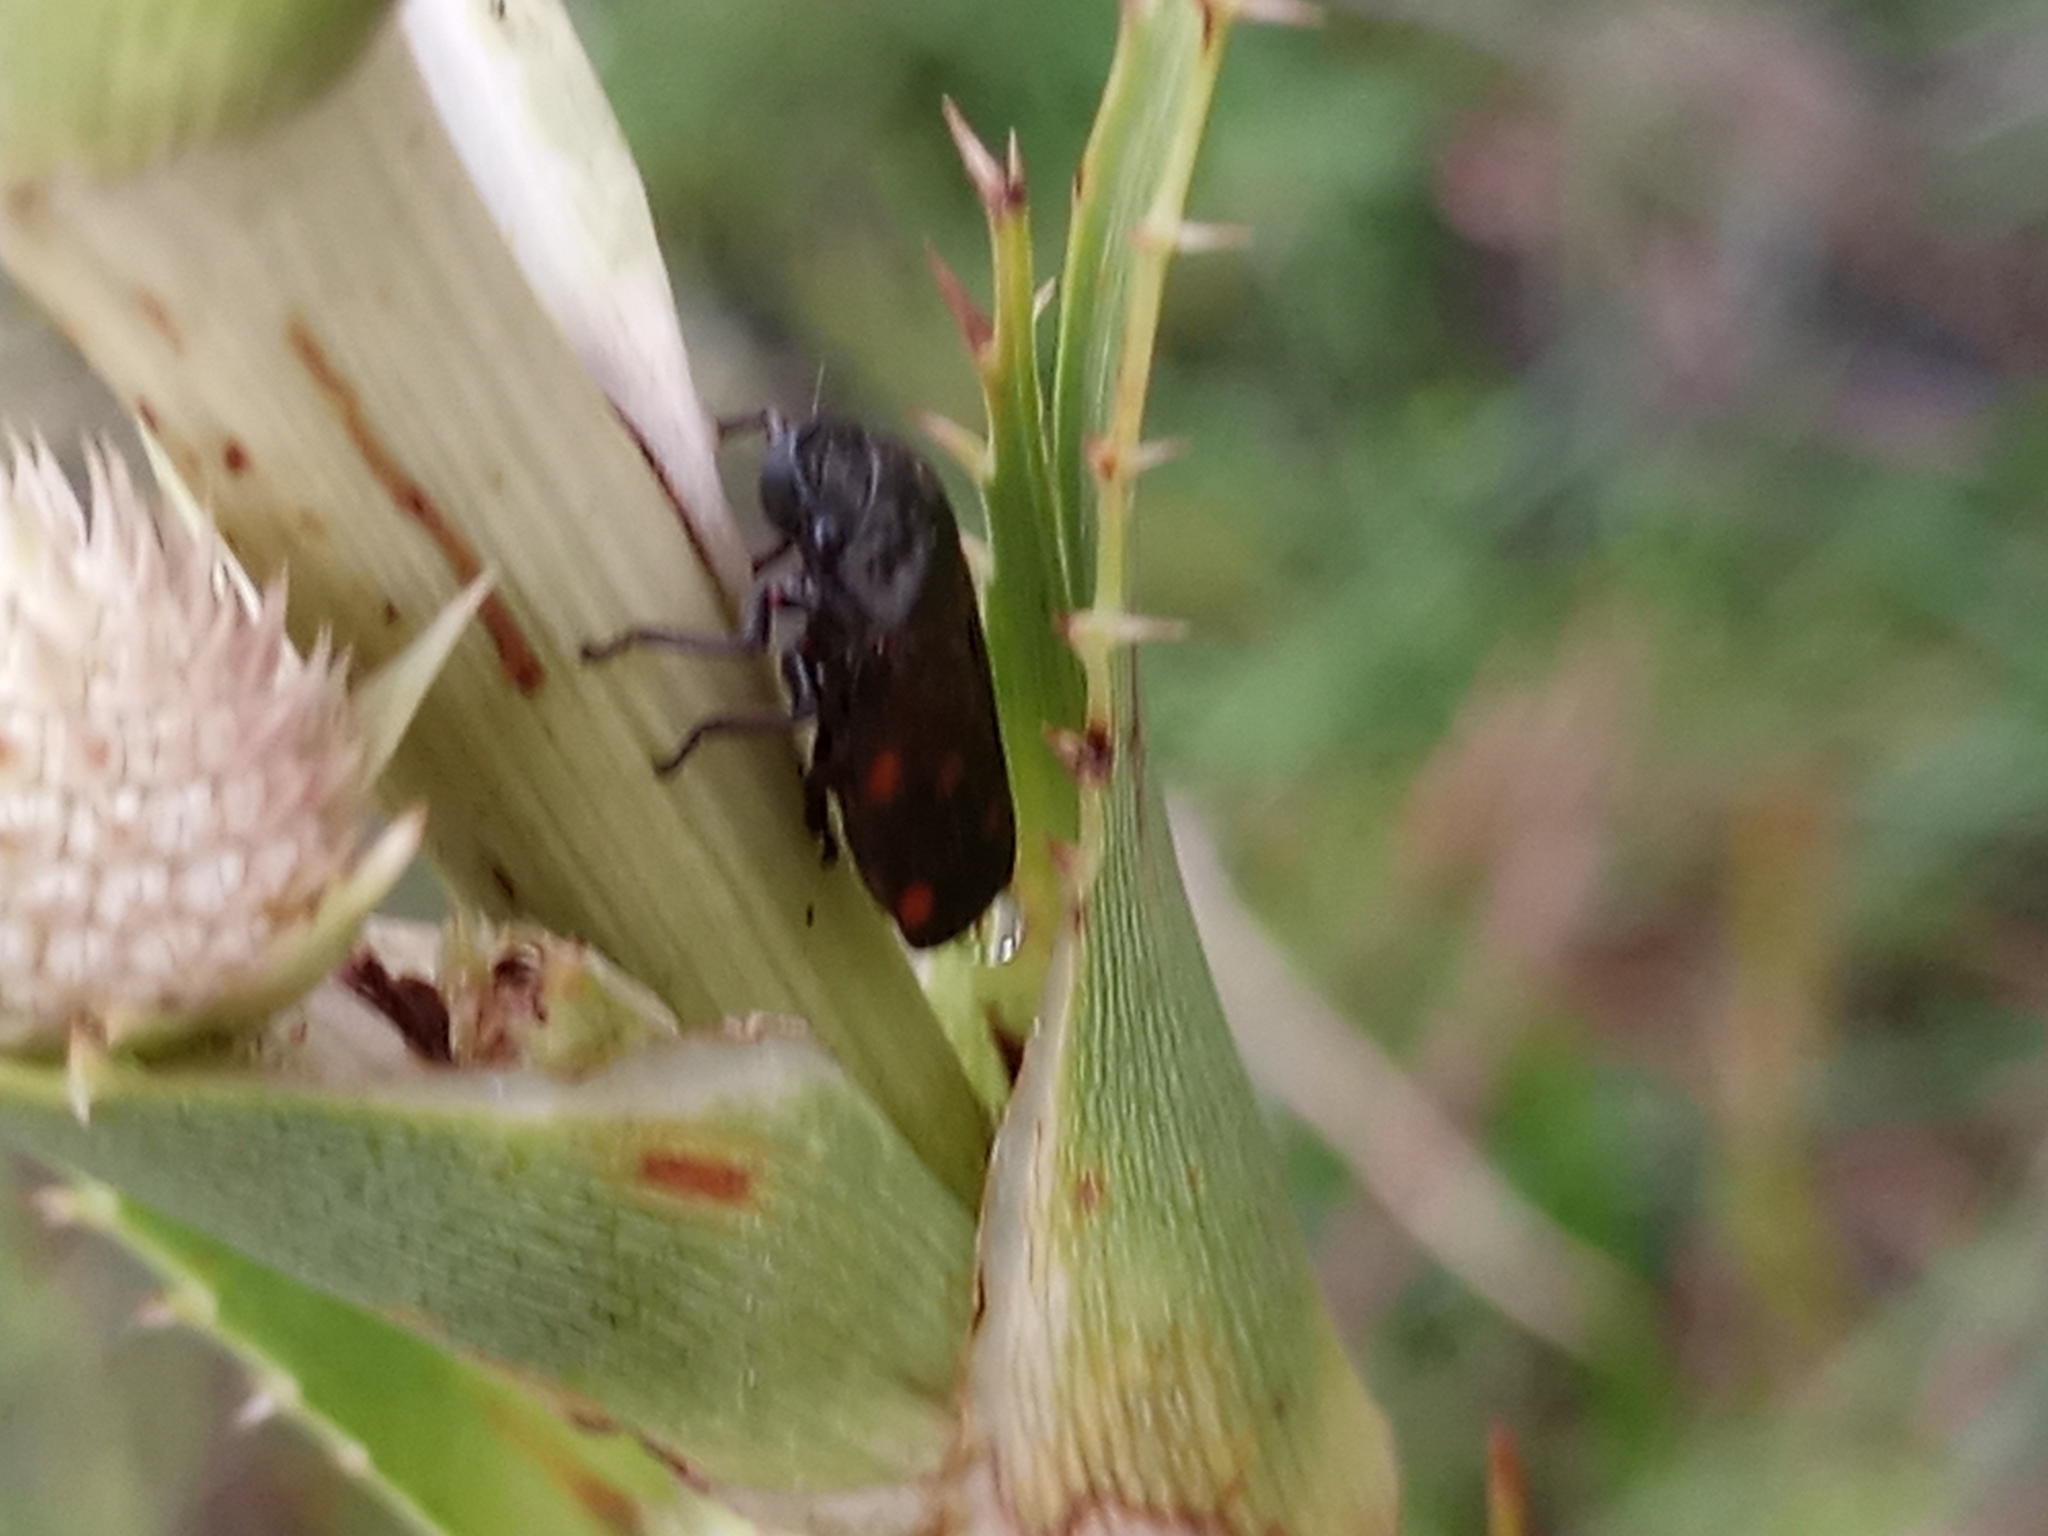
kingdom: Animalia
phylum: Arthropoda
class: Insecta
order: Hemiptera
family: Cercopidae
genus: Kanaima
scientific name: Kanaima fluvialis
